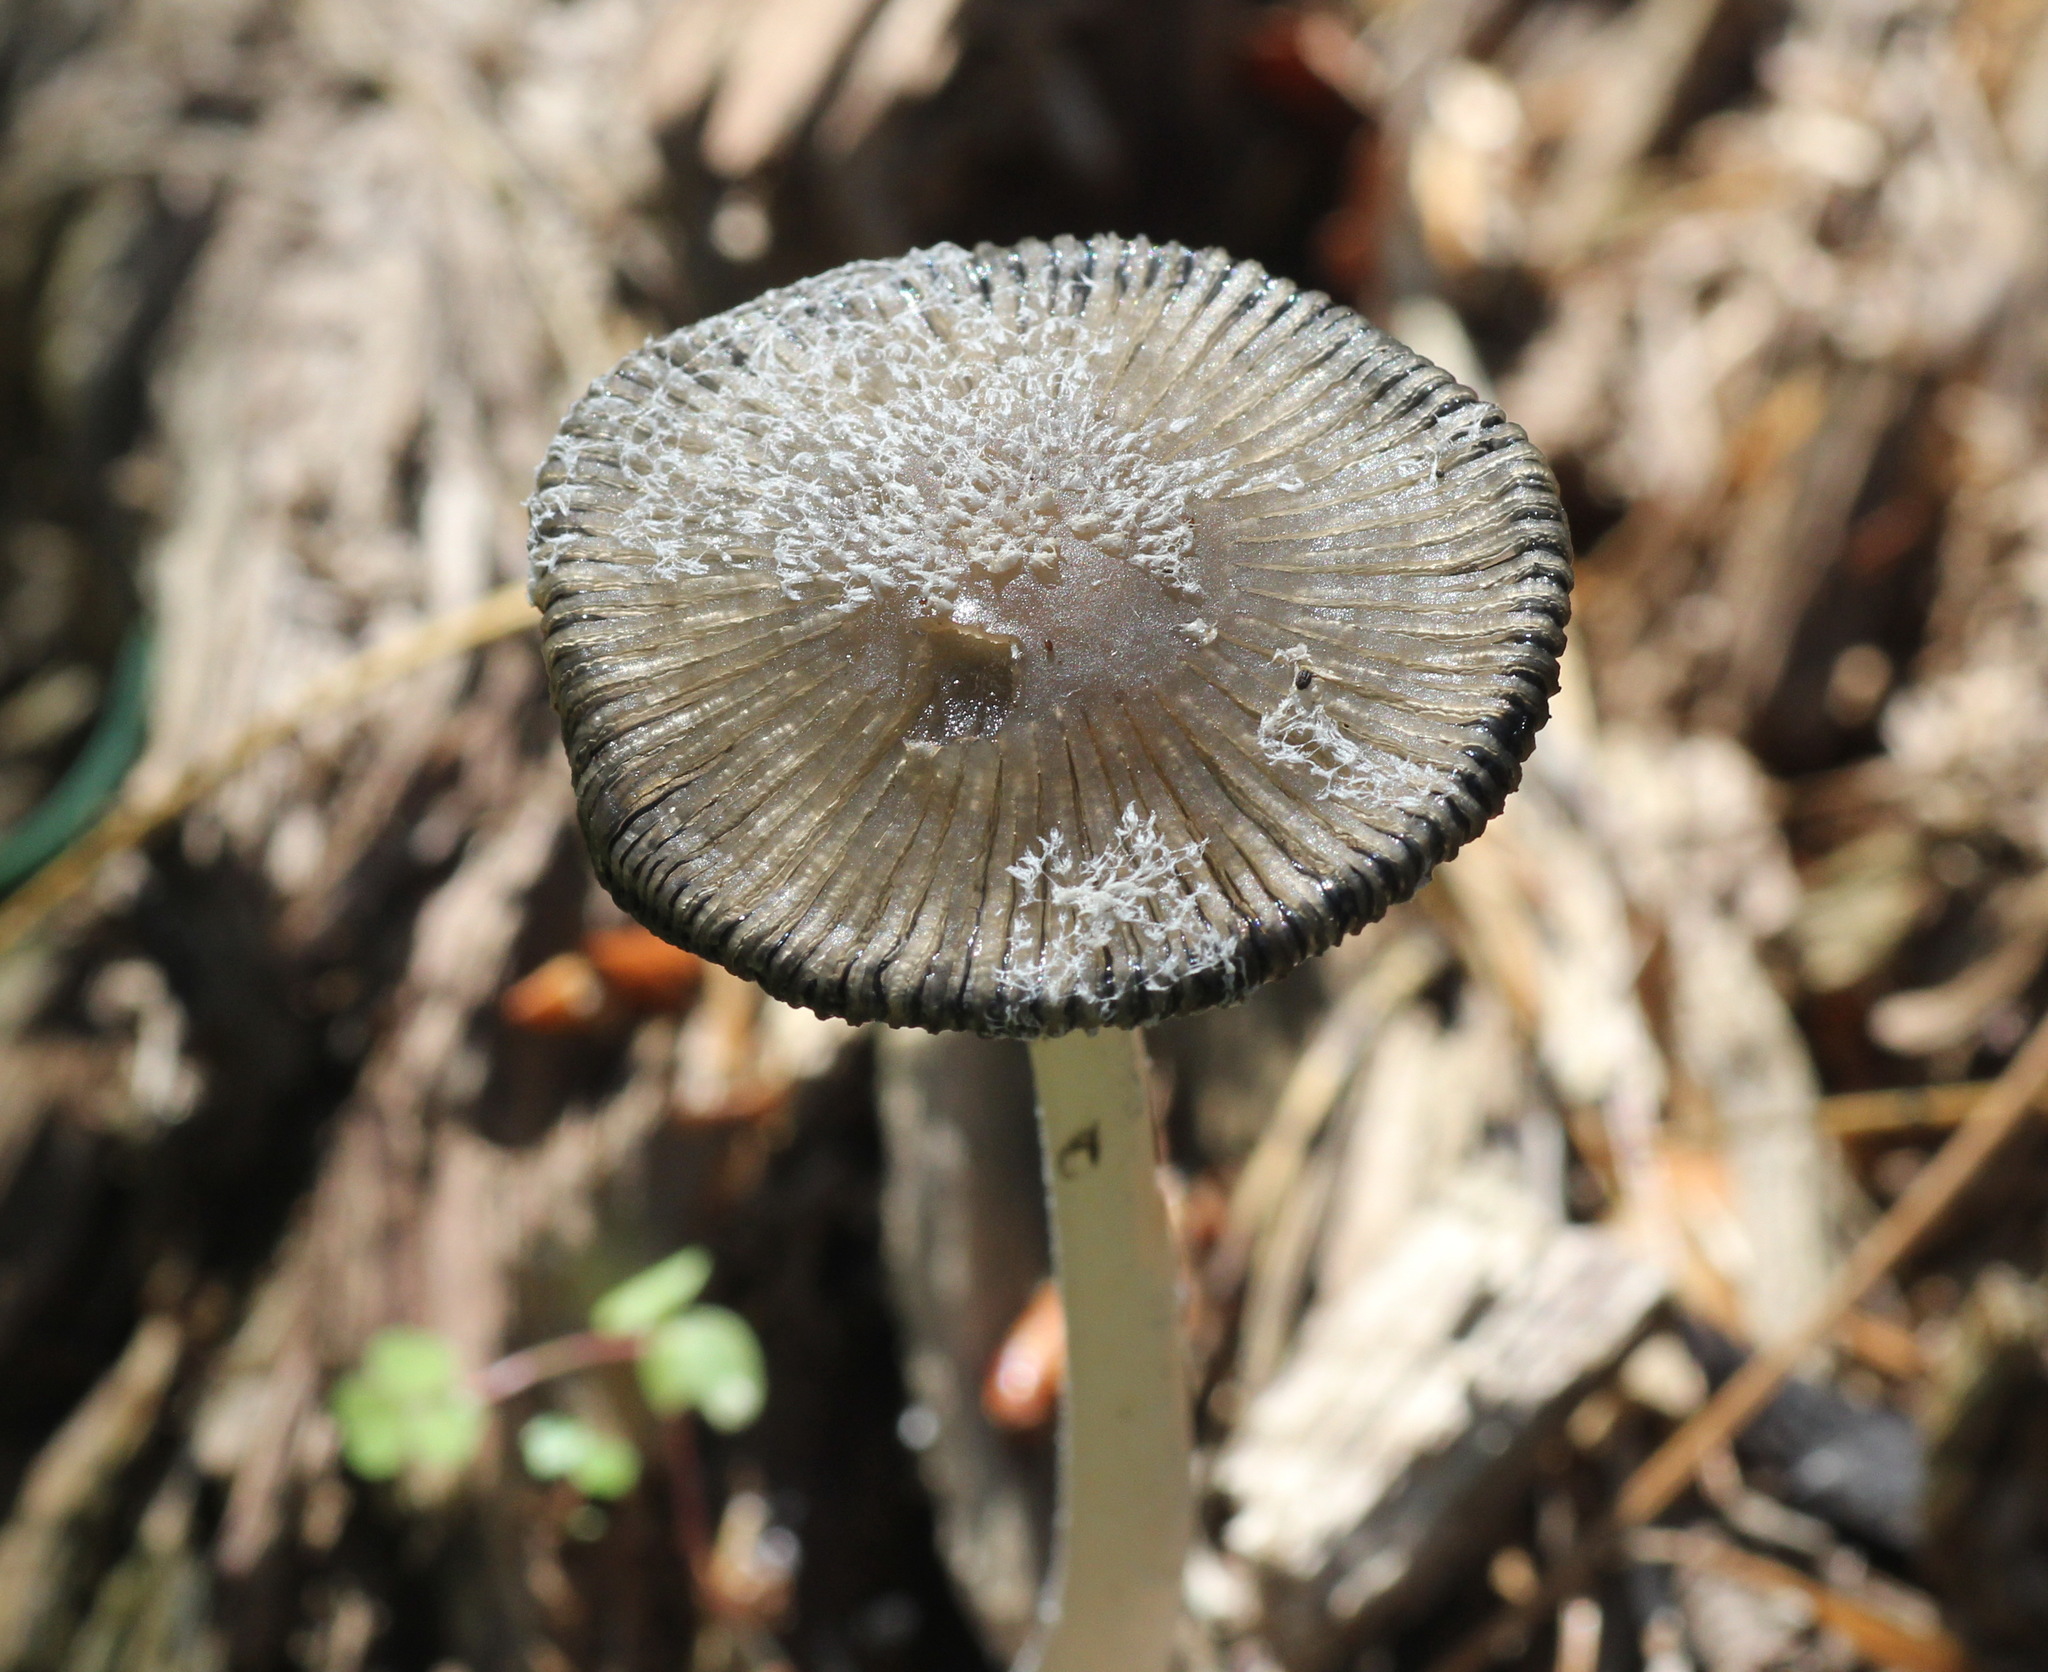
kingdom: Fungi
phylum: Basidiomycota
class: Agaricomycetes
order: Agaricales
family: Psathyrellaceae
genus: Coprinopsis
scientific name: Coprinopsis jonesii
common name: Bonfire inkcap
